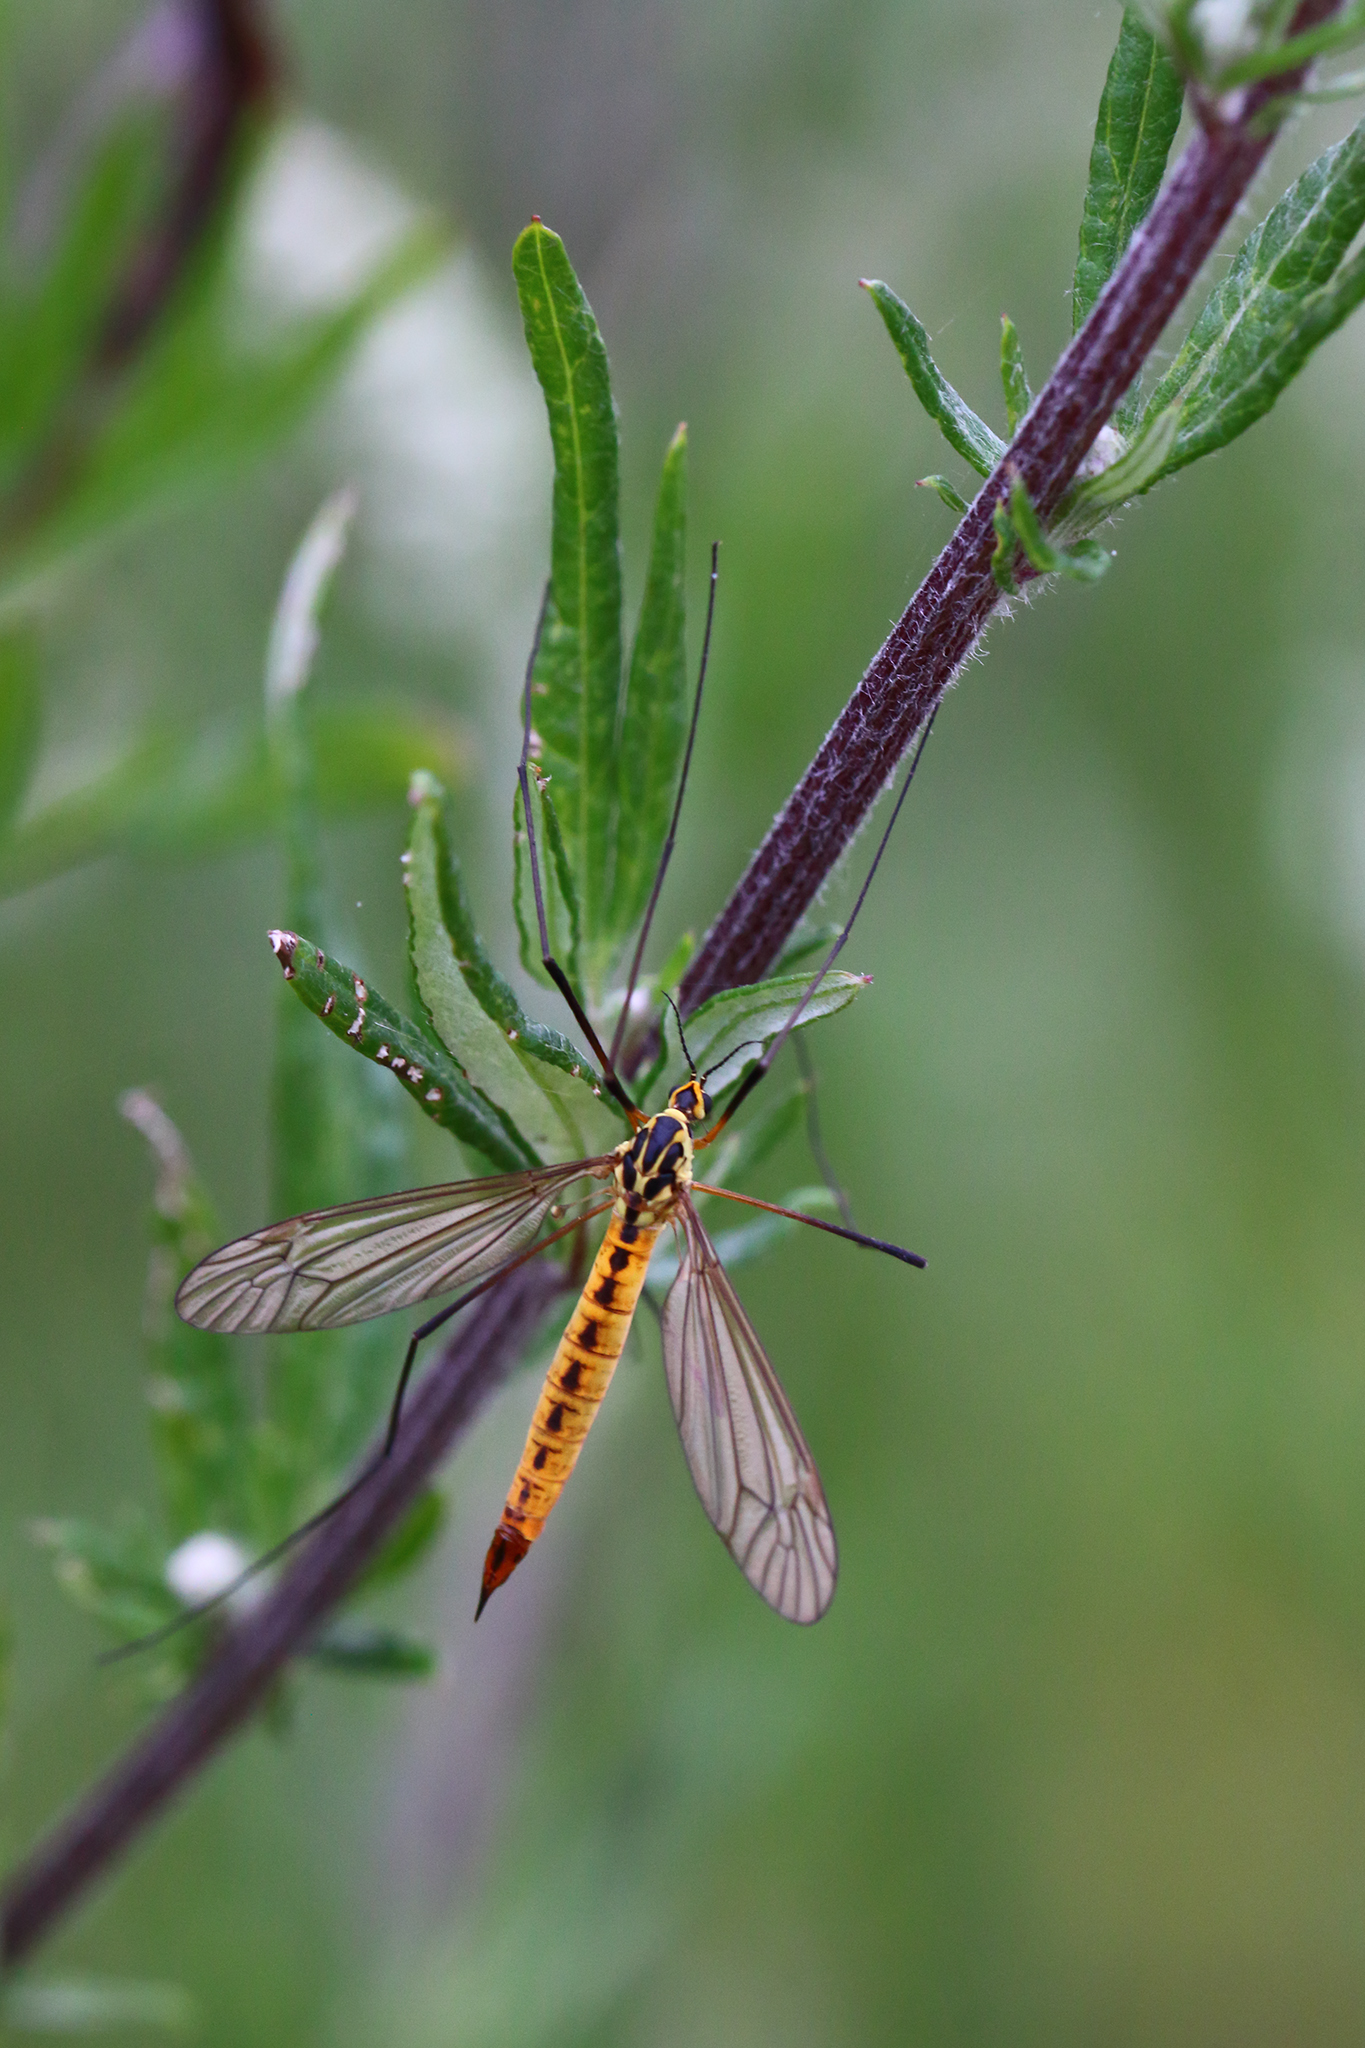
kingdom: Animalia
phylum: Arthropoda
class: Insecta
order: Diptera
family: Tipulidae
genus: Nephrotoma
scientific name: Nephrotoma flavescens
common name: Tiger cranefly
